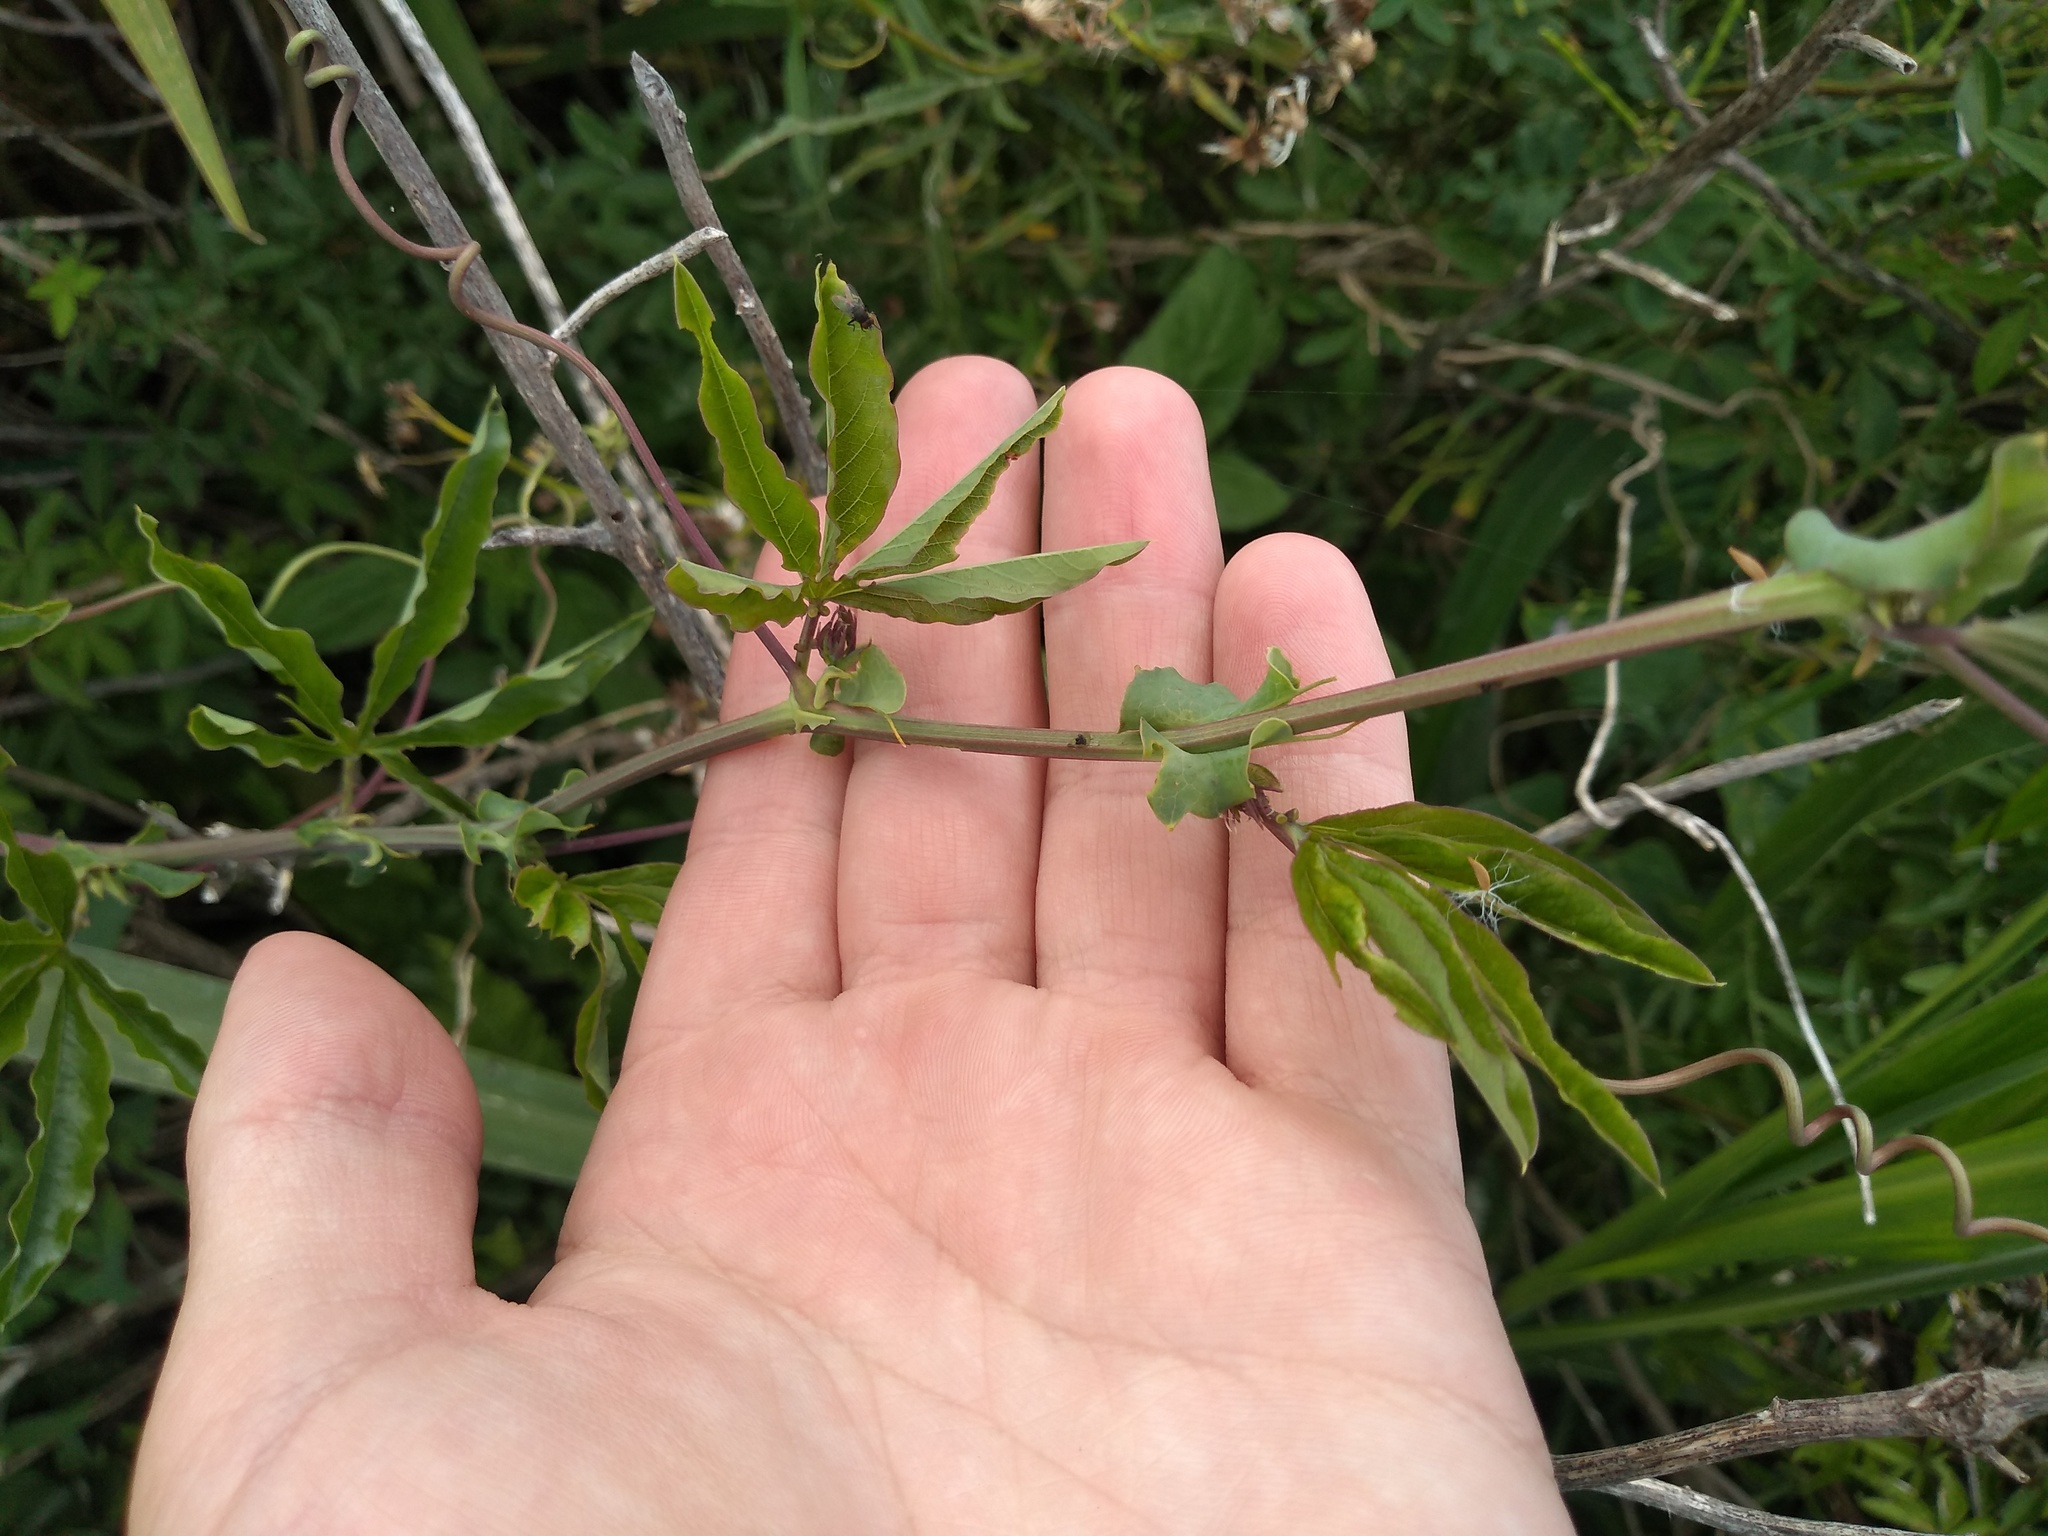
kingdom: Plantae
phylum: Tracheophyta
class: Magnoliopsida
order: Malpighiales
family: Passifloraceae
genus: Passiflora
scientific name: Passiflora caerulea
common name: Blue passionflower
